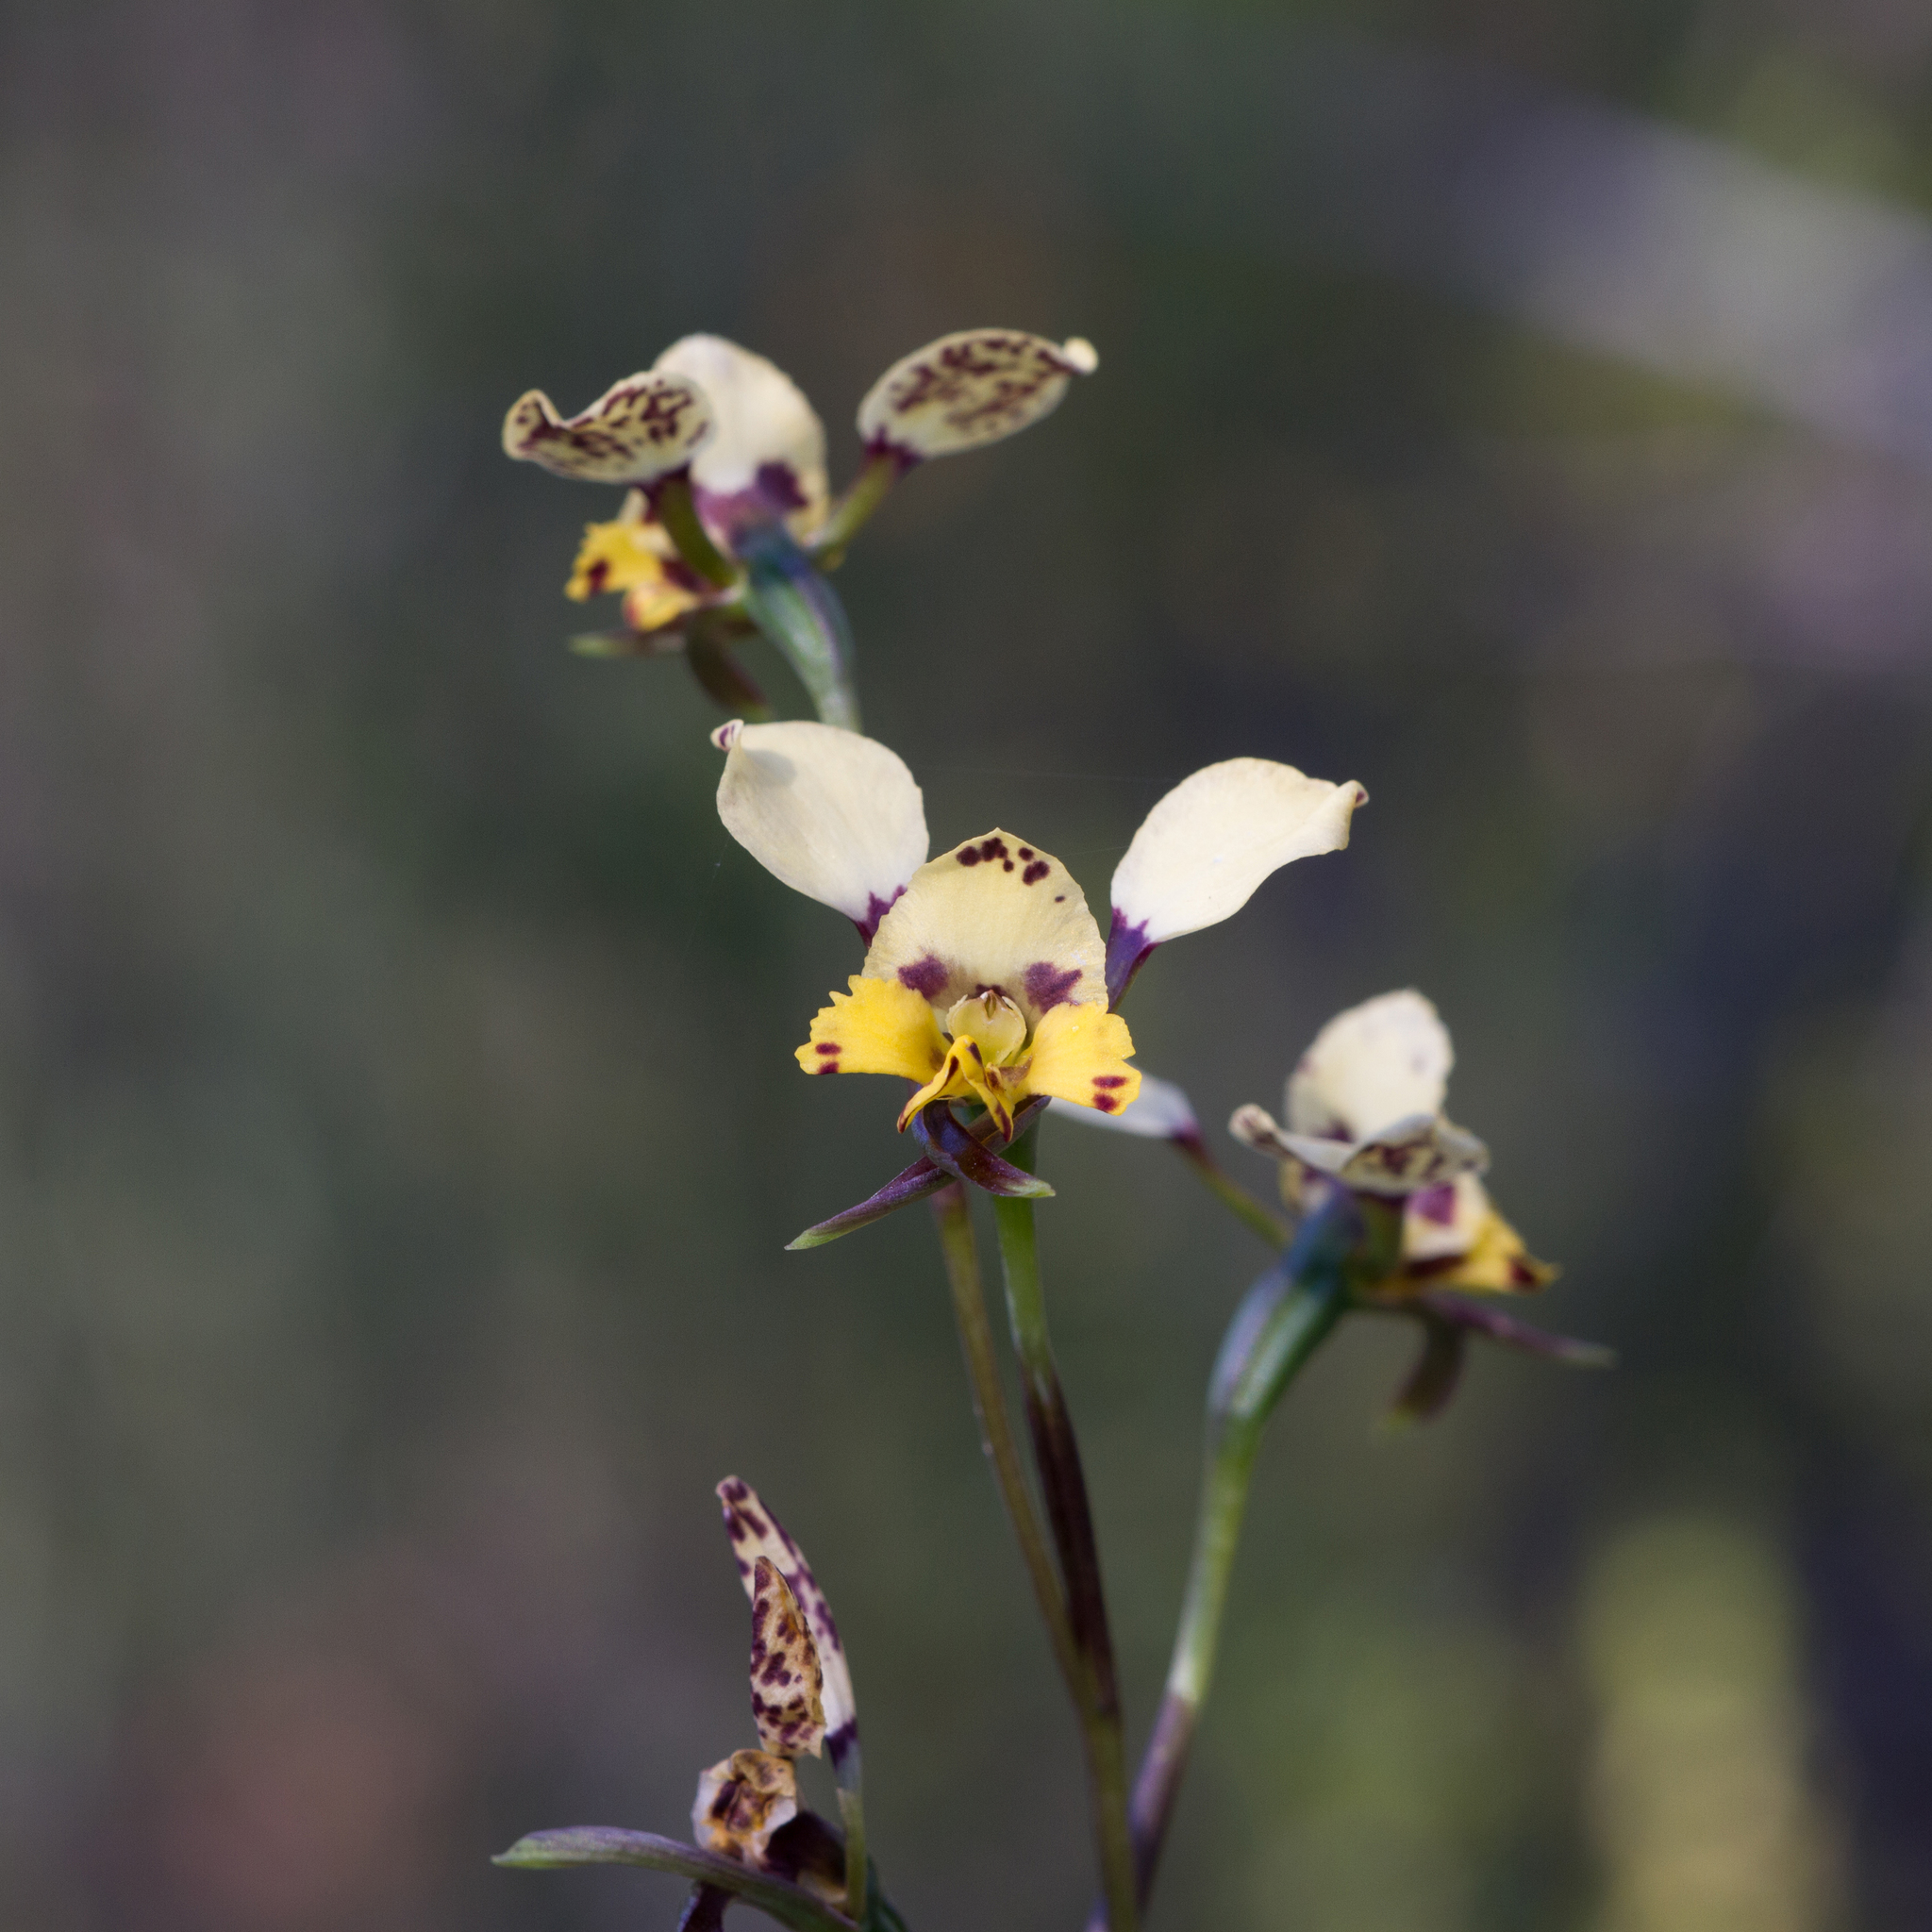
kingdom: Plantae
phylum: Tracheophyta
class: Liliopsida
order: Asparagales
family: Orchidaceae
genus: Diuris
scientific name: Diuris pardina
